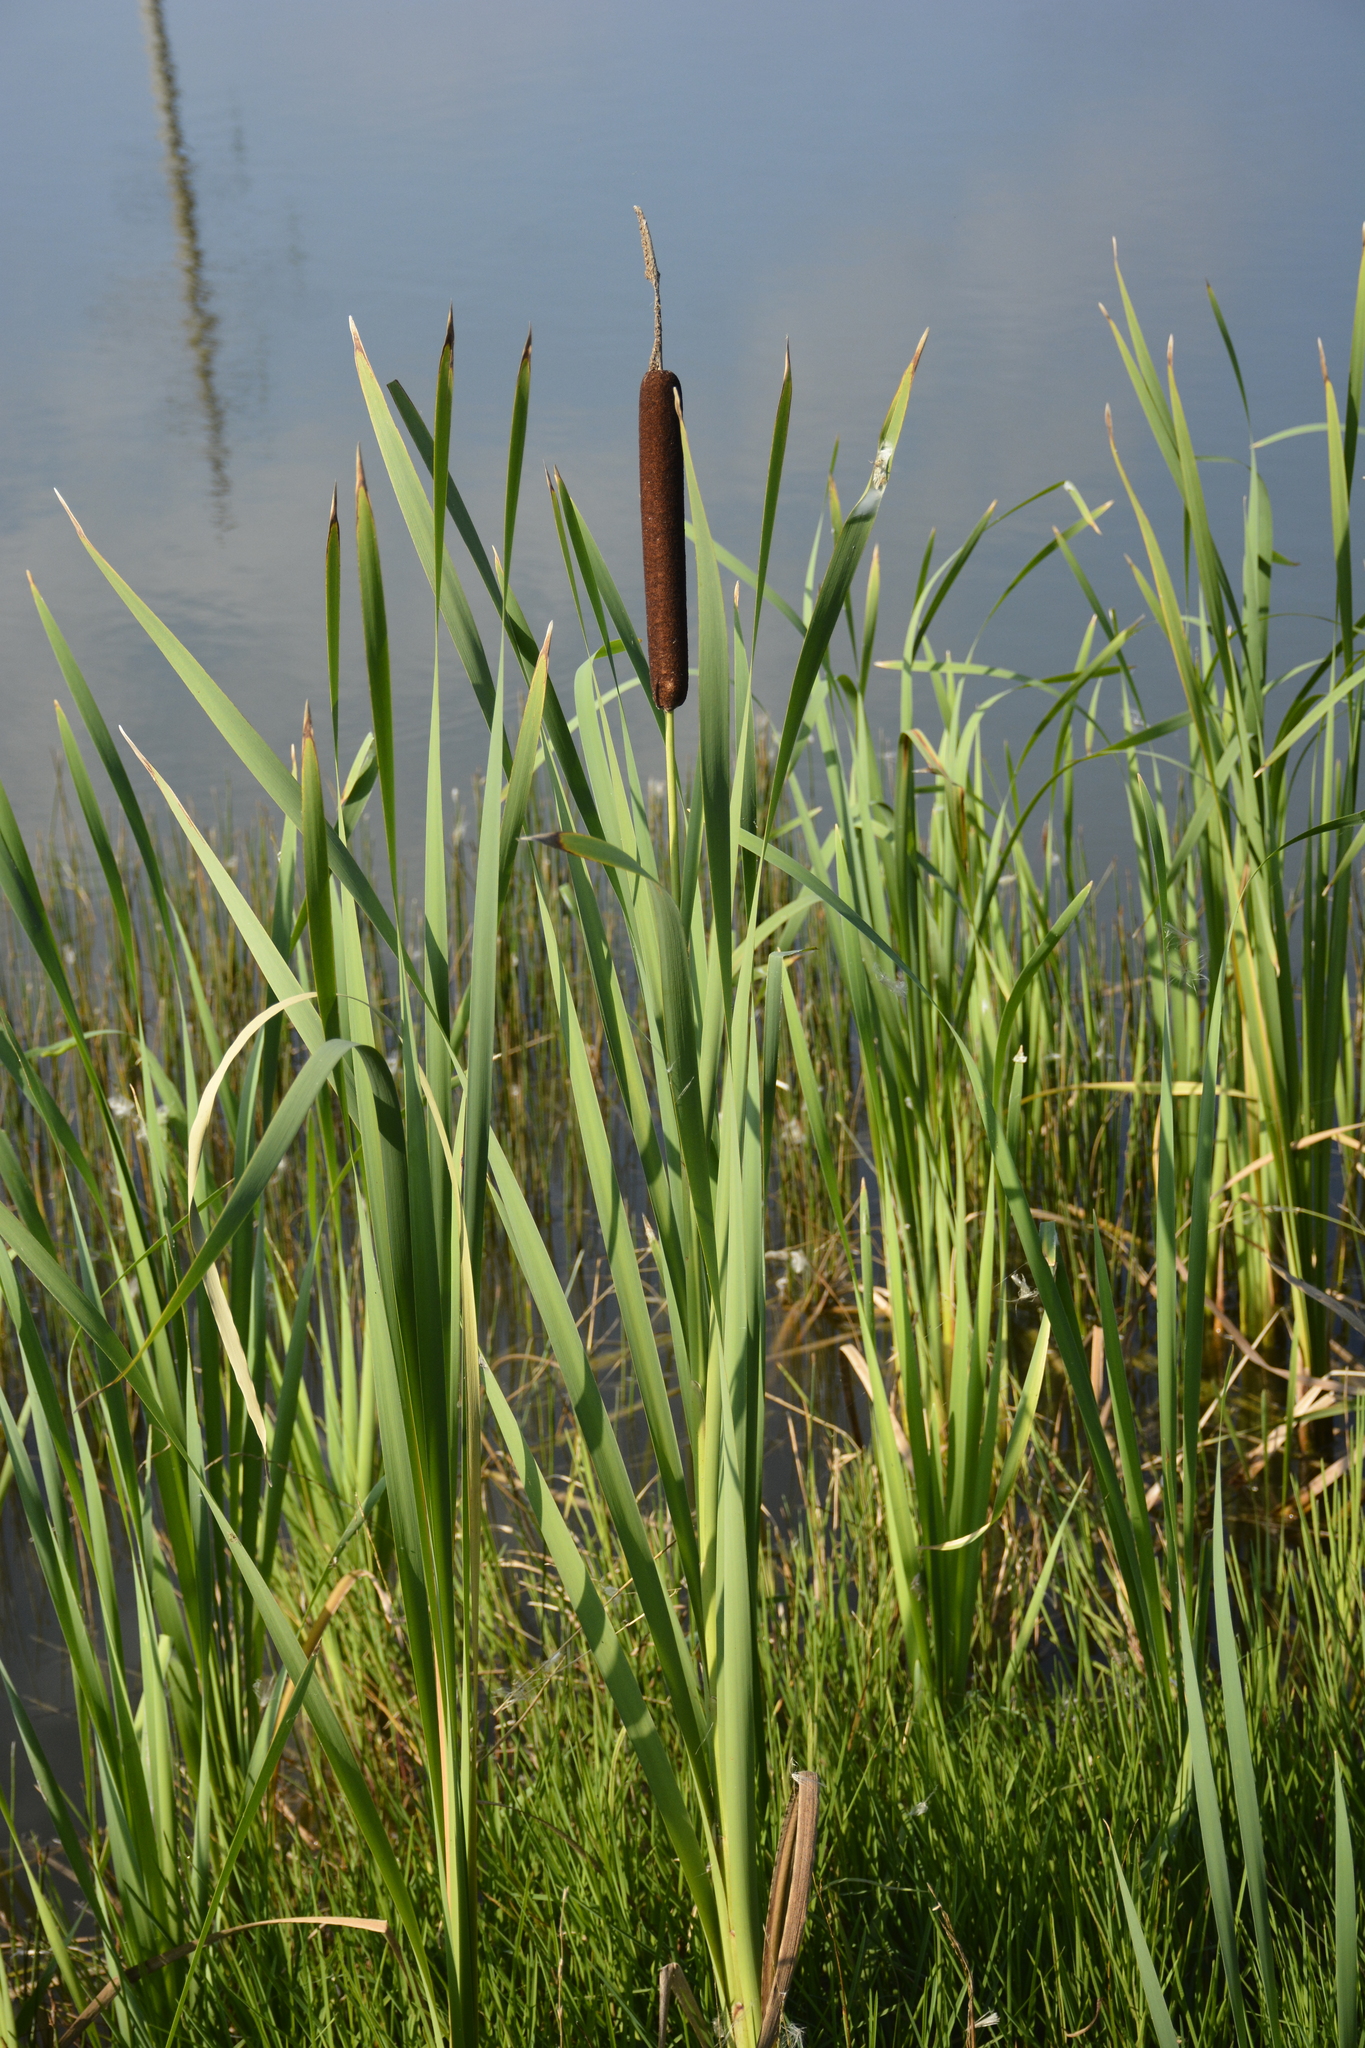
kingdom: Plantae
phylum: Tracheophyta
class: Liliopsida
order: Poales
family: Typhaceae
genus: Typha
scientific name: Typha latifolia
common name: Broadleaf cattail
